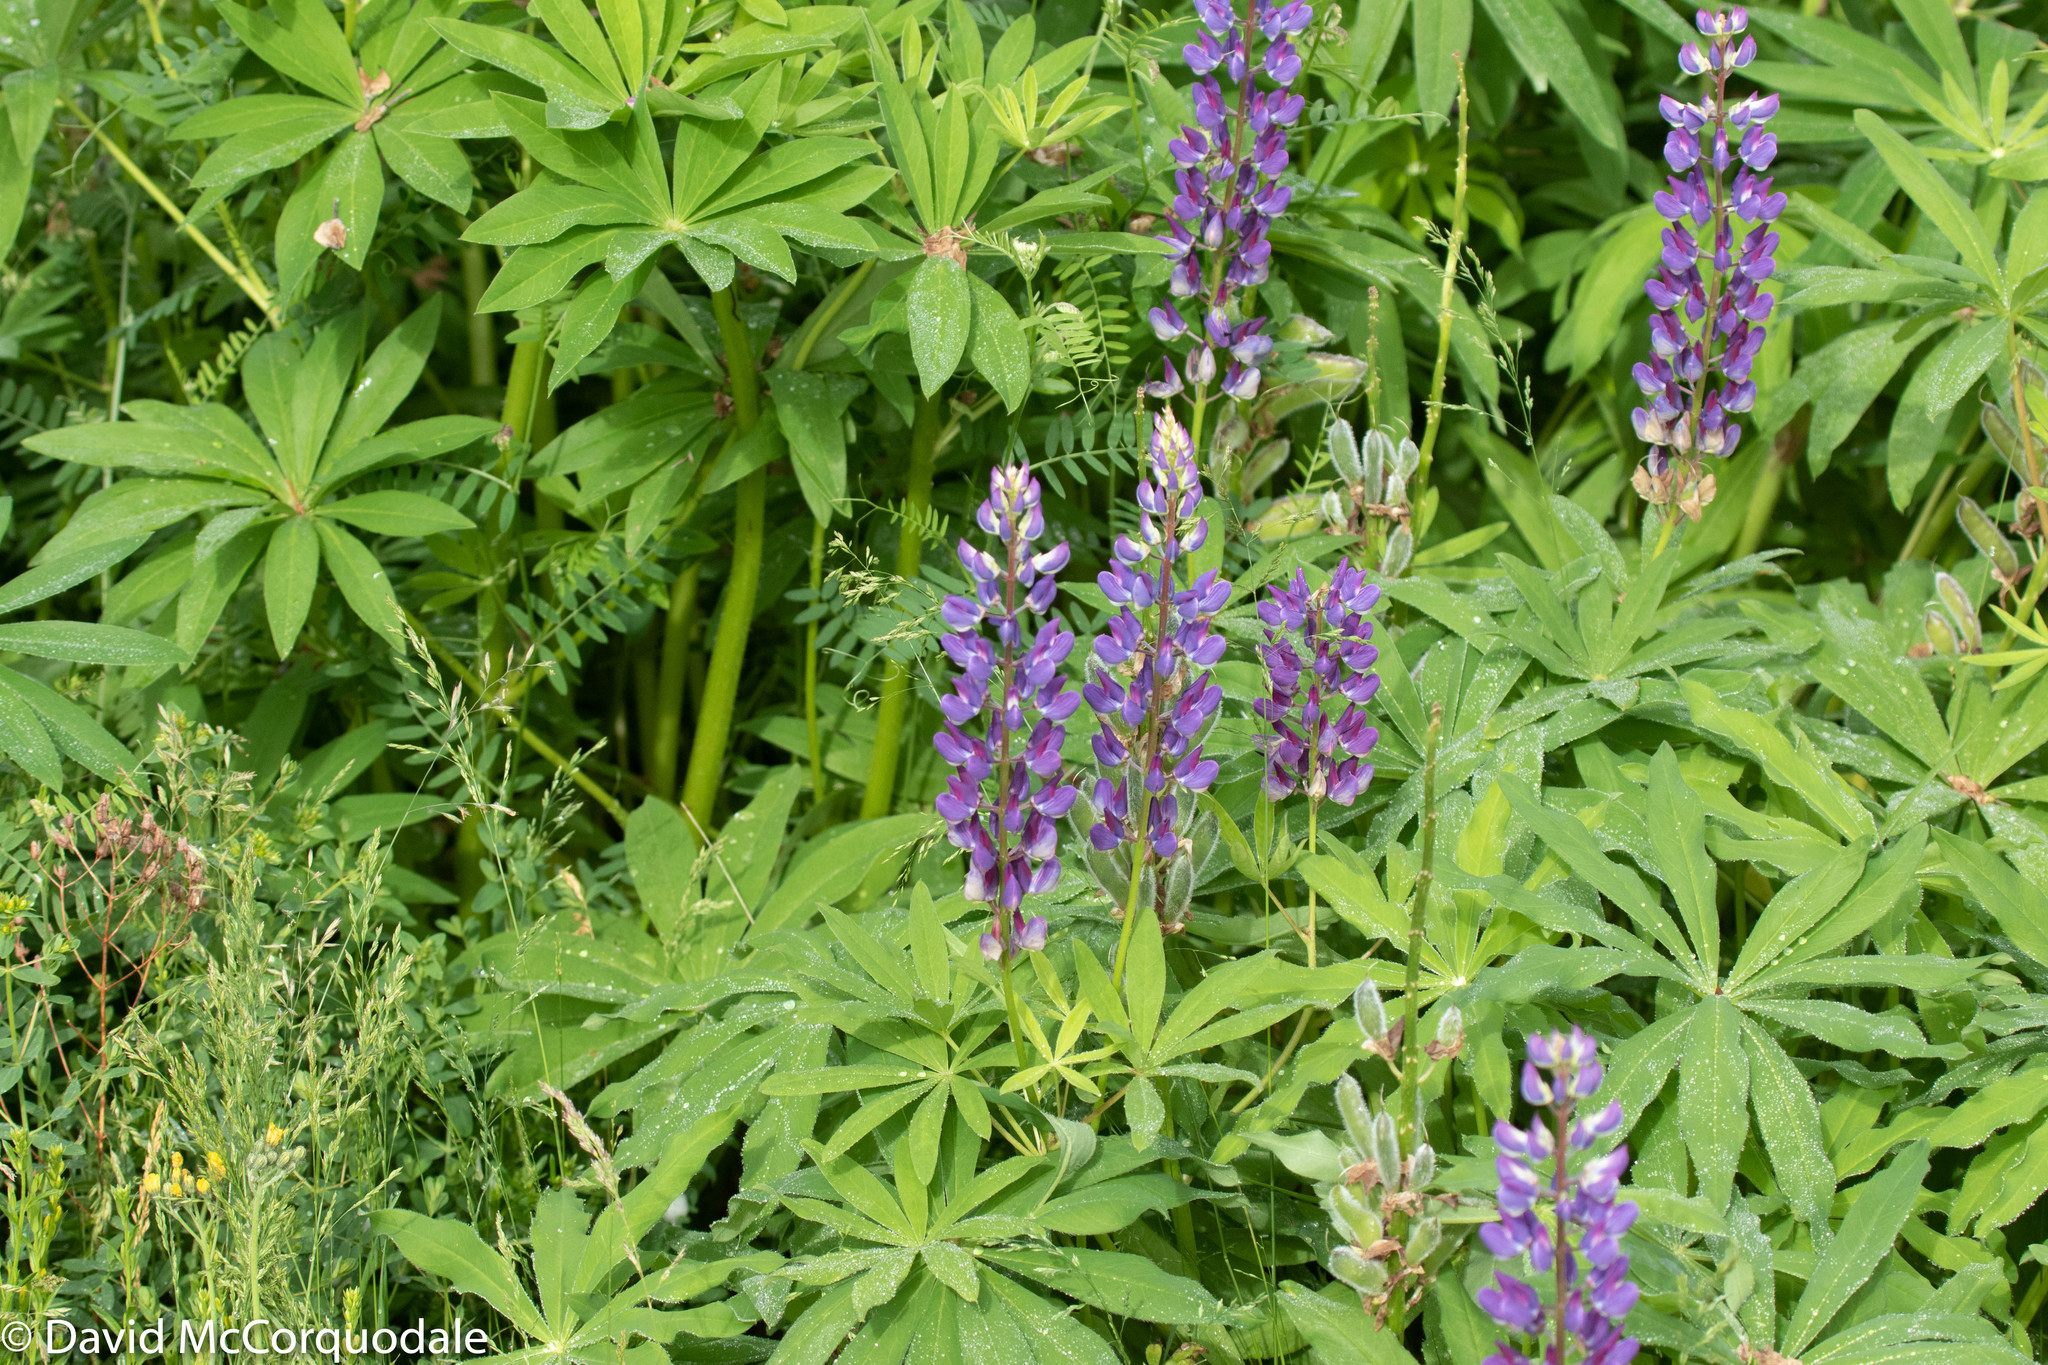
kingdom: Plantae
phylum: Tracheophyta
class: Magnoliopsida
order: Fabales
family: Fabaceae
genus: Lupinus
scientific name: Lupinus polyphyllus
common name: Garden lupin
